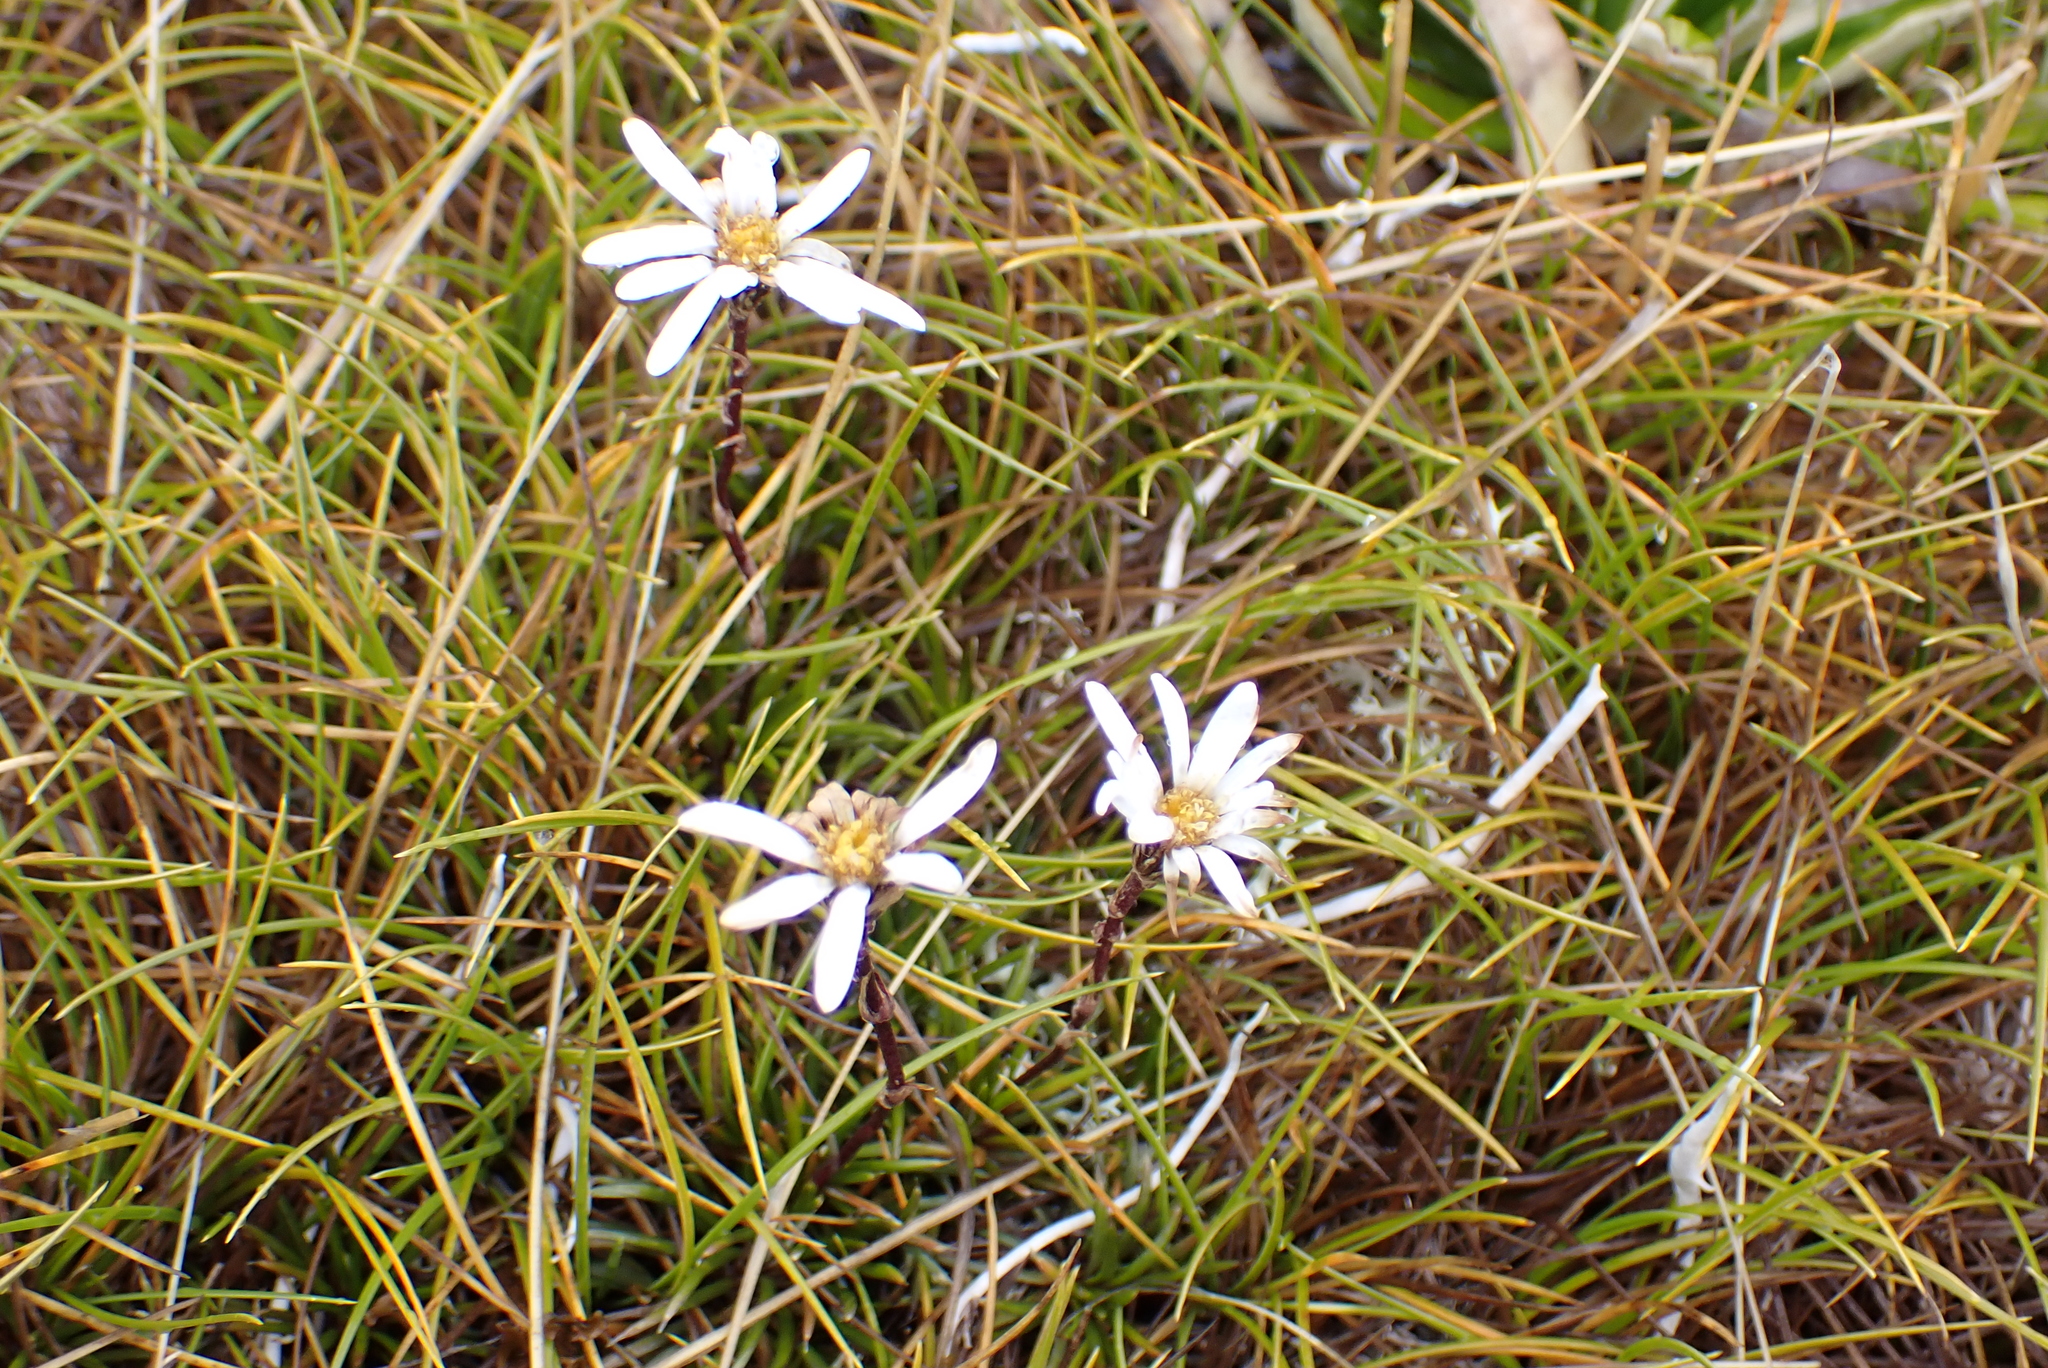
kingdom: Plantae
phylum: Tracheophyta
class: Magnoliopsida
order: Asterales
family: Asteraceae
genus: Celmisia
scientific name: Celmisia gracilenta
